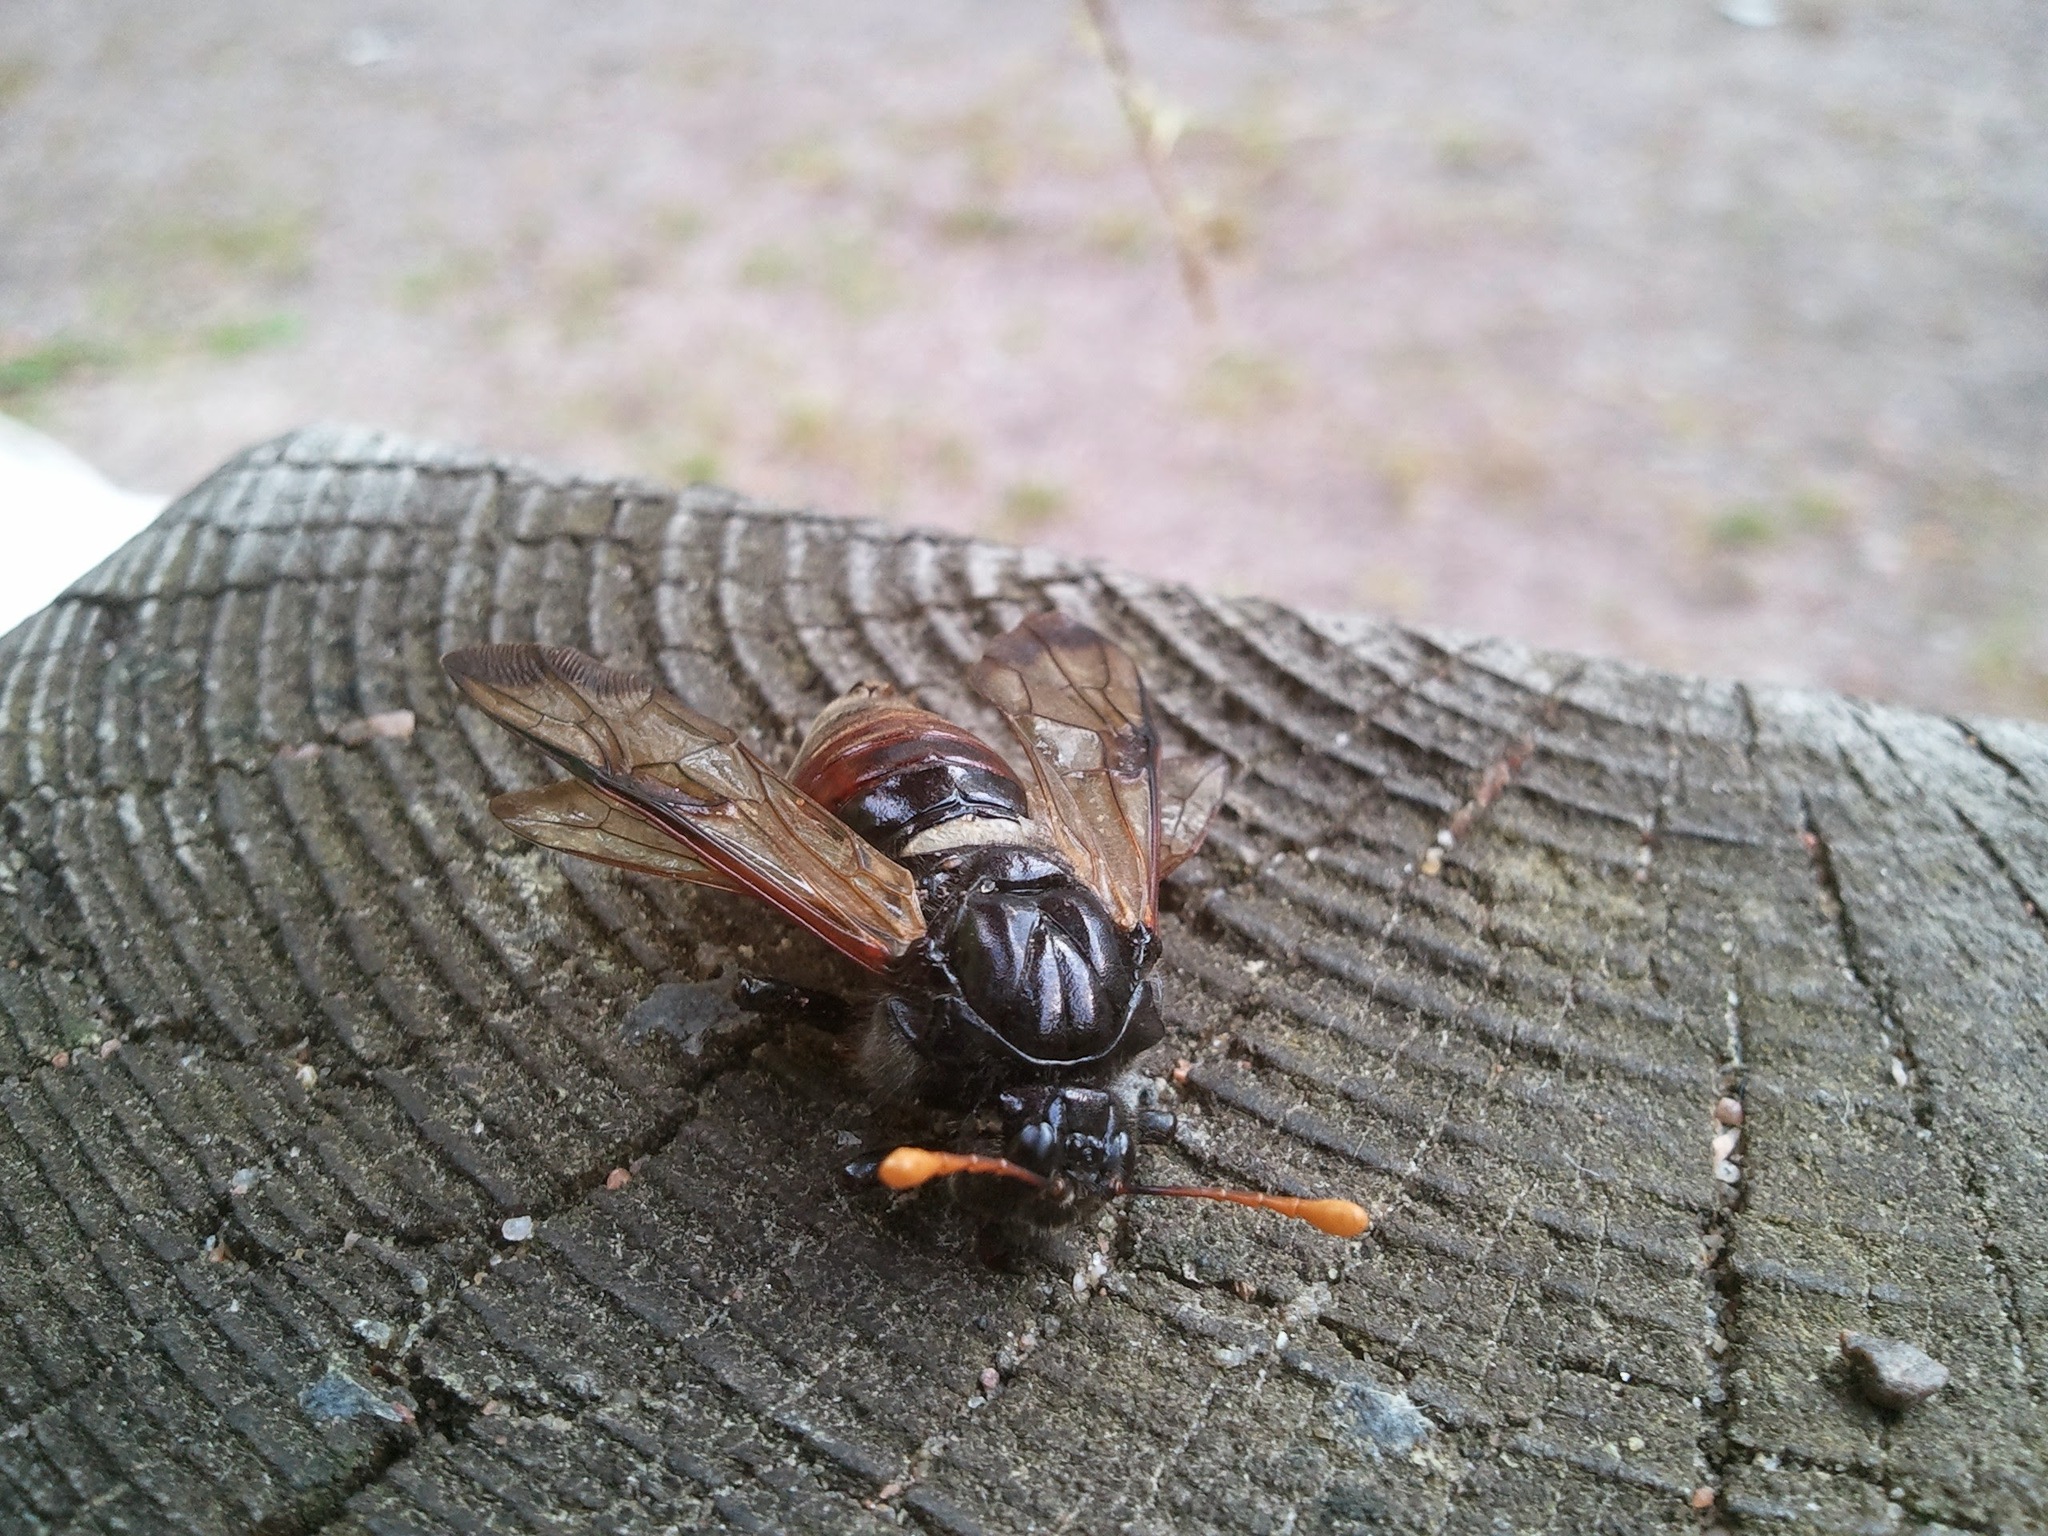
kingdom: Animalia
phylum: Arthropoda
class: Insecta
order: Hymenoptera
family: Cimbicidae
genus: Cimbex
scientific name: Cimbex femoratus
